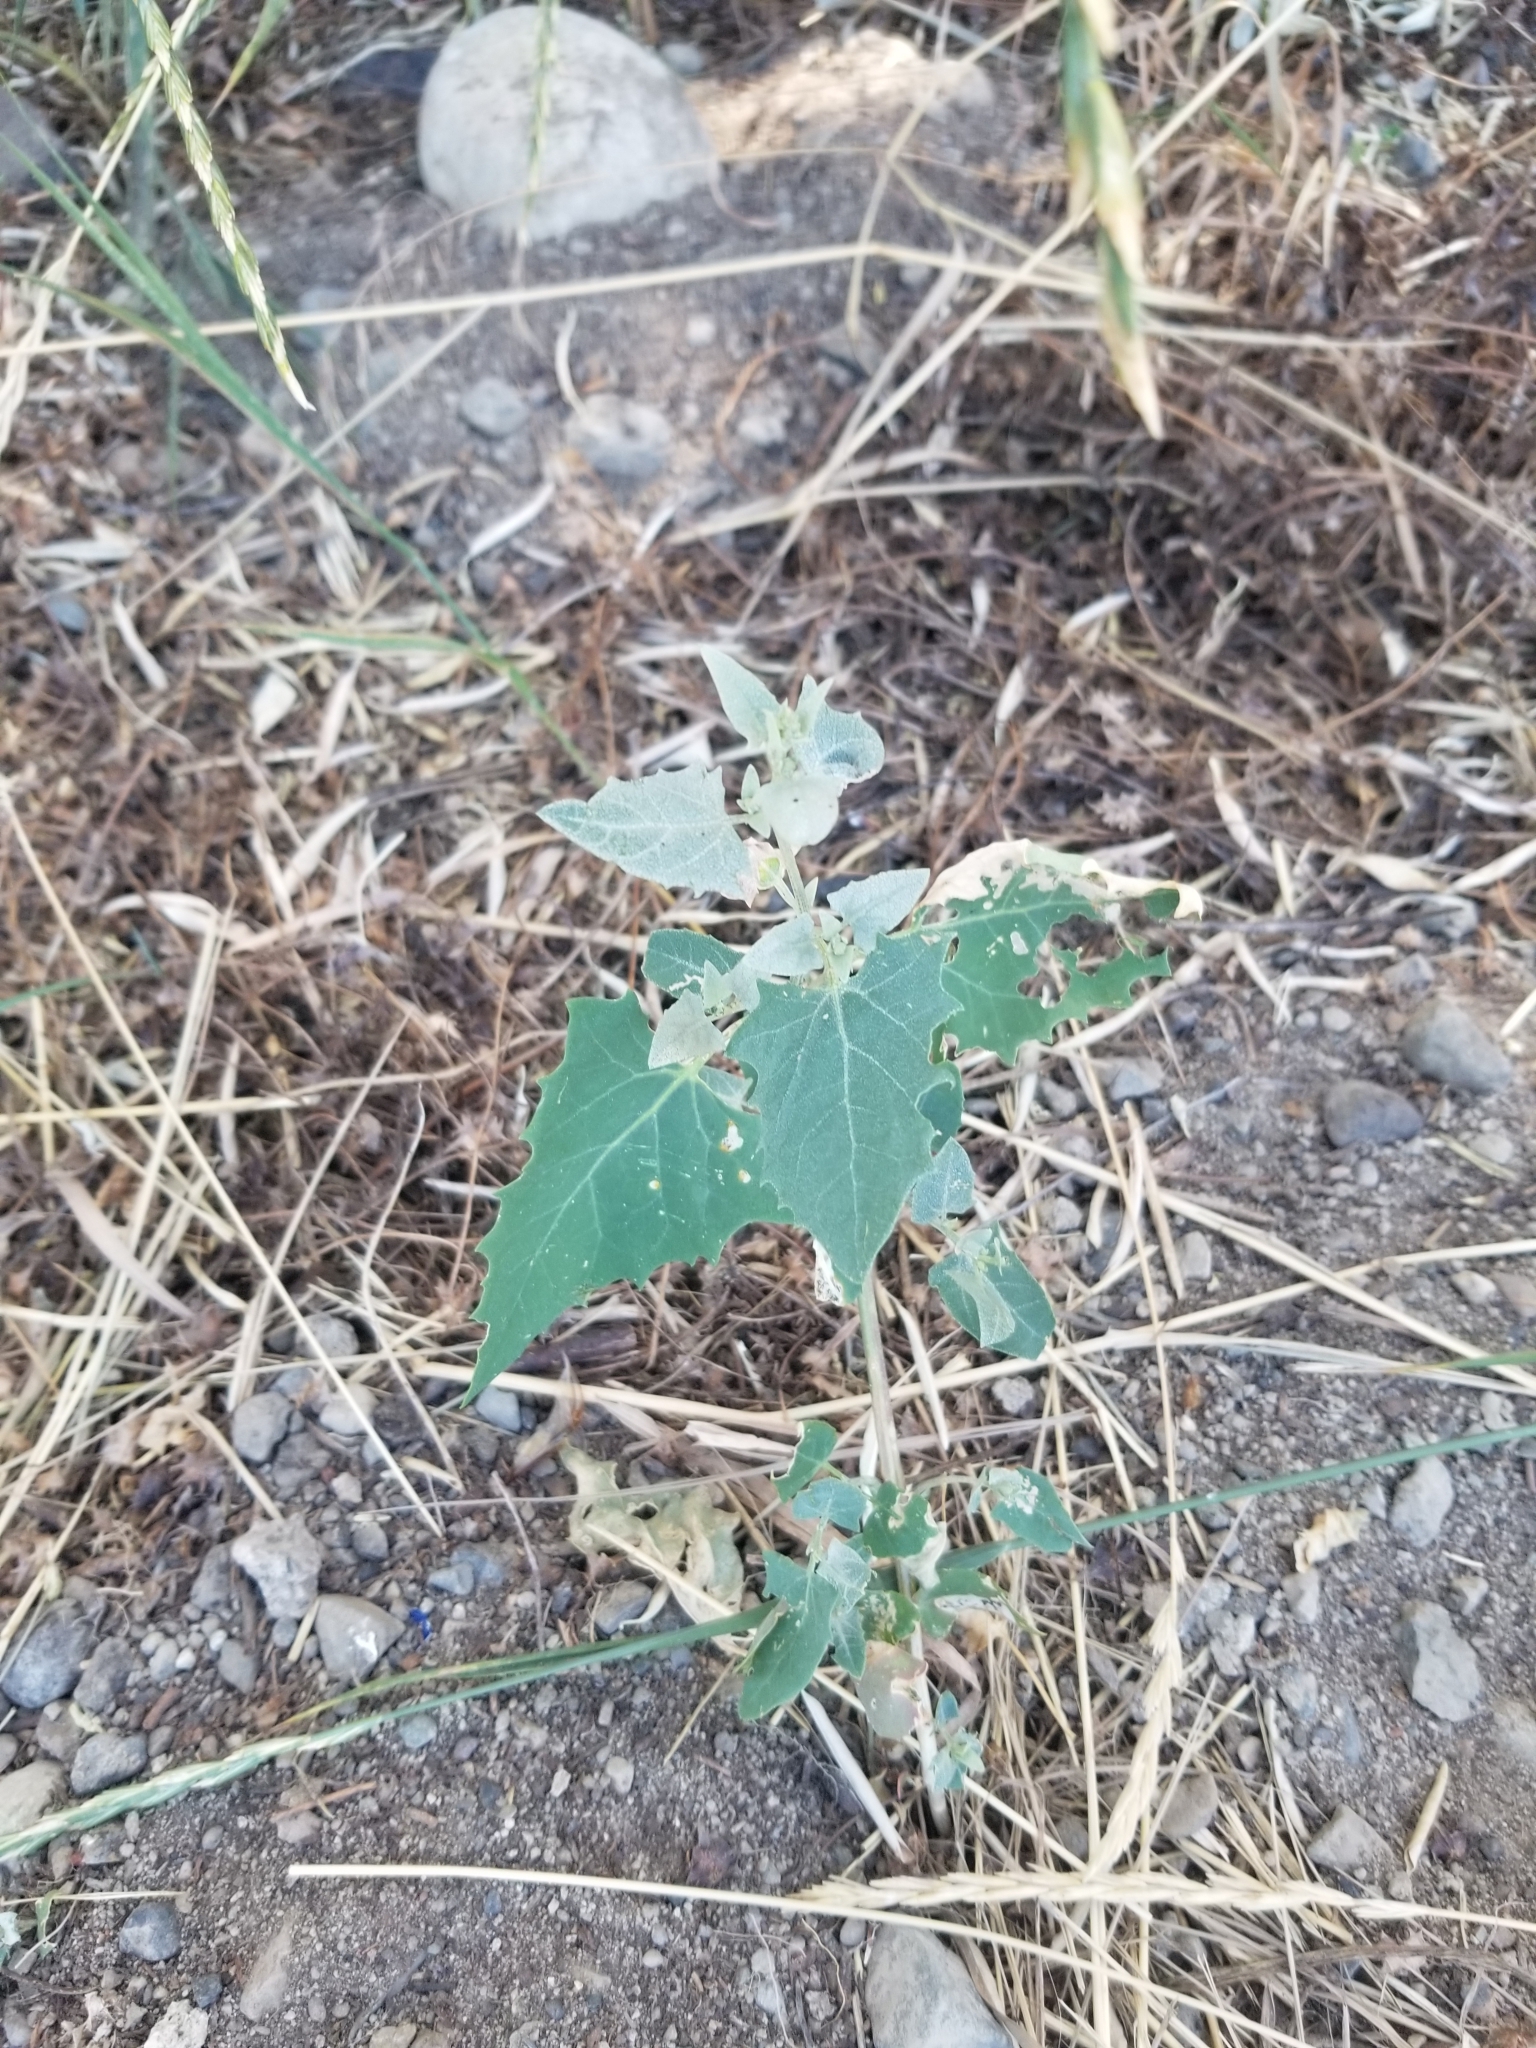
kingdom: Plantae
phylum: Tracheophyta
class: Magnoliopsida
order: Caryophyllales
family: Amaranthaceae
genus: Chenopodium
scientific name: Chenopodium album
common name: Fat-hen
